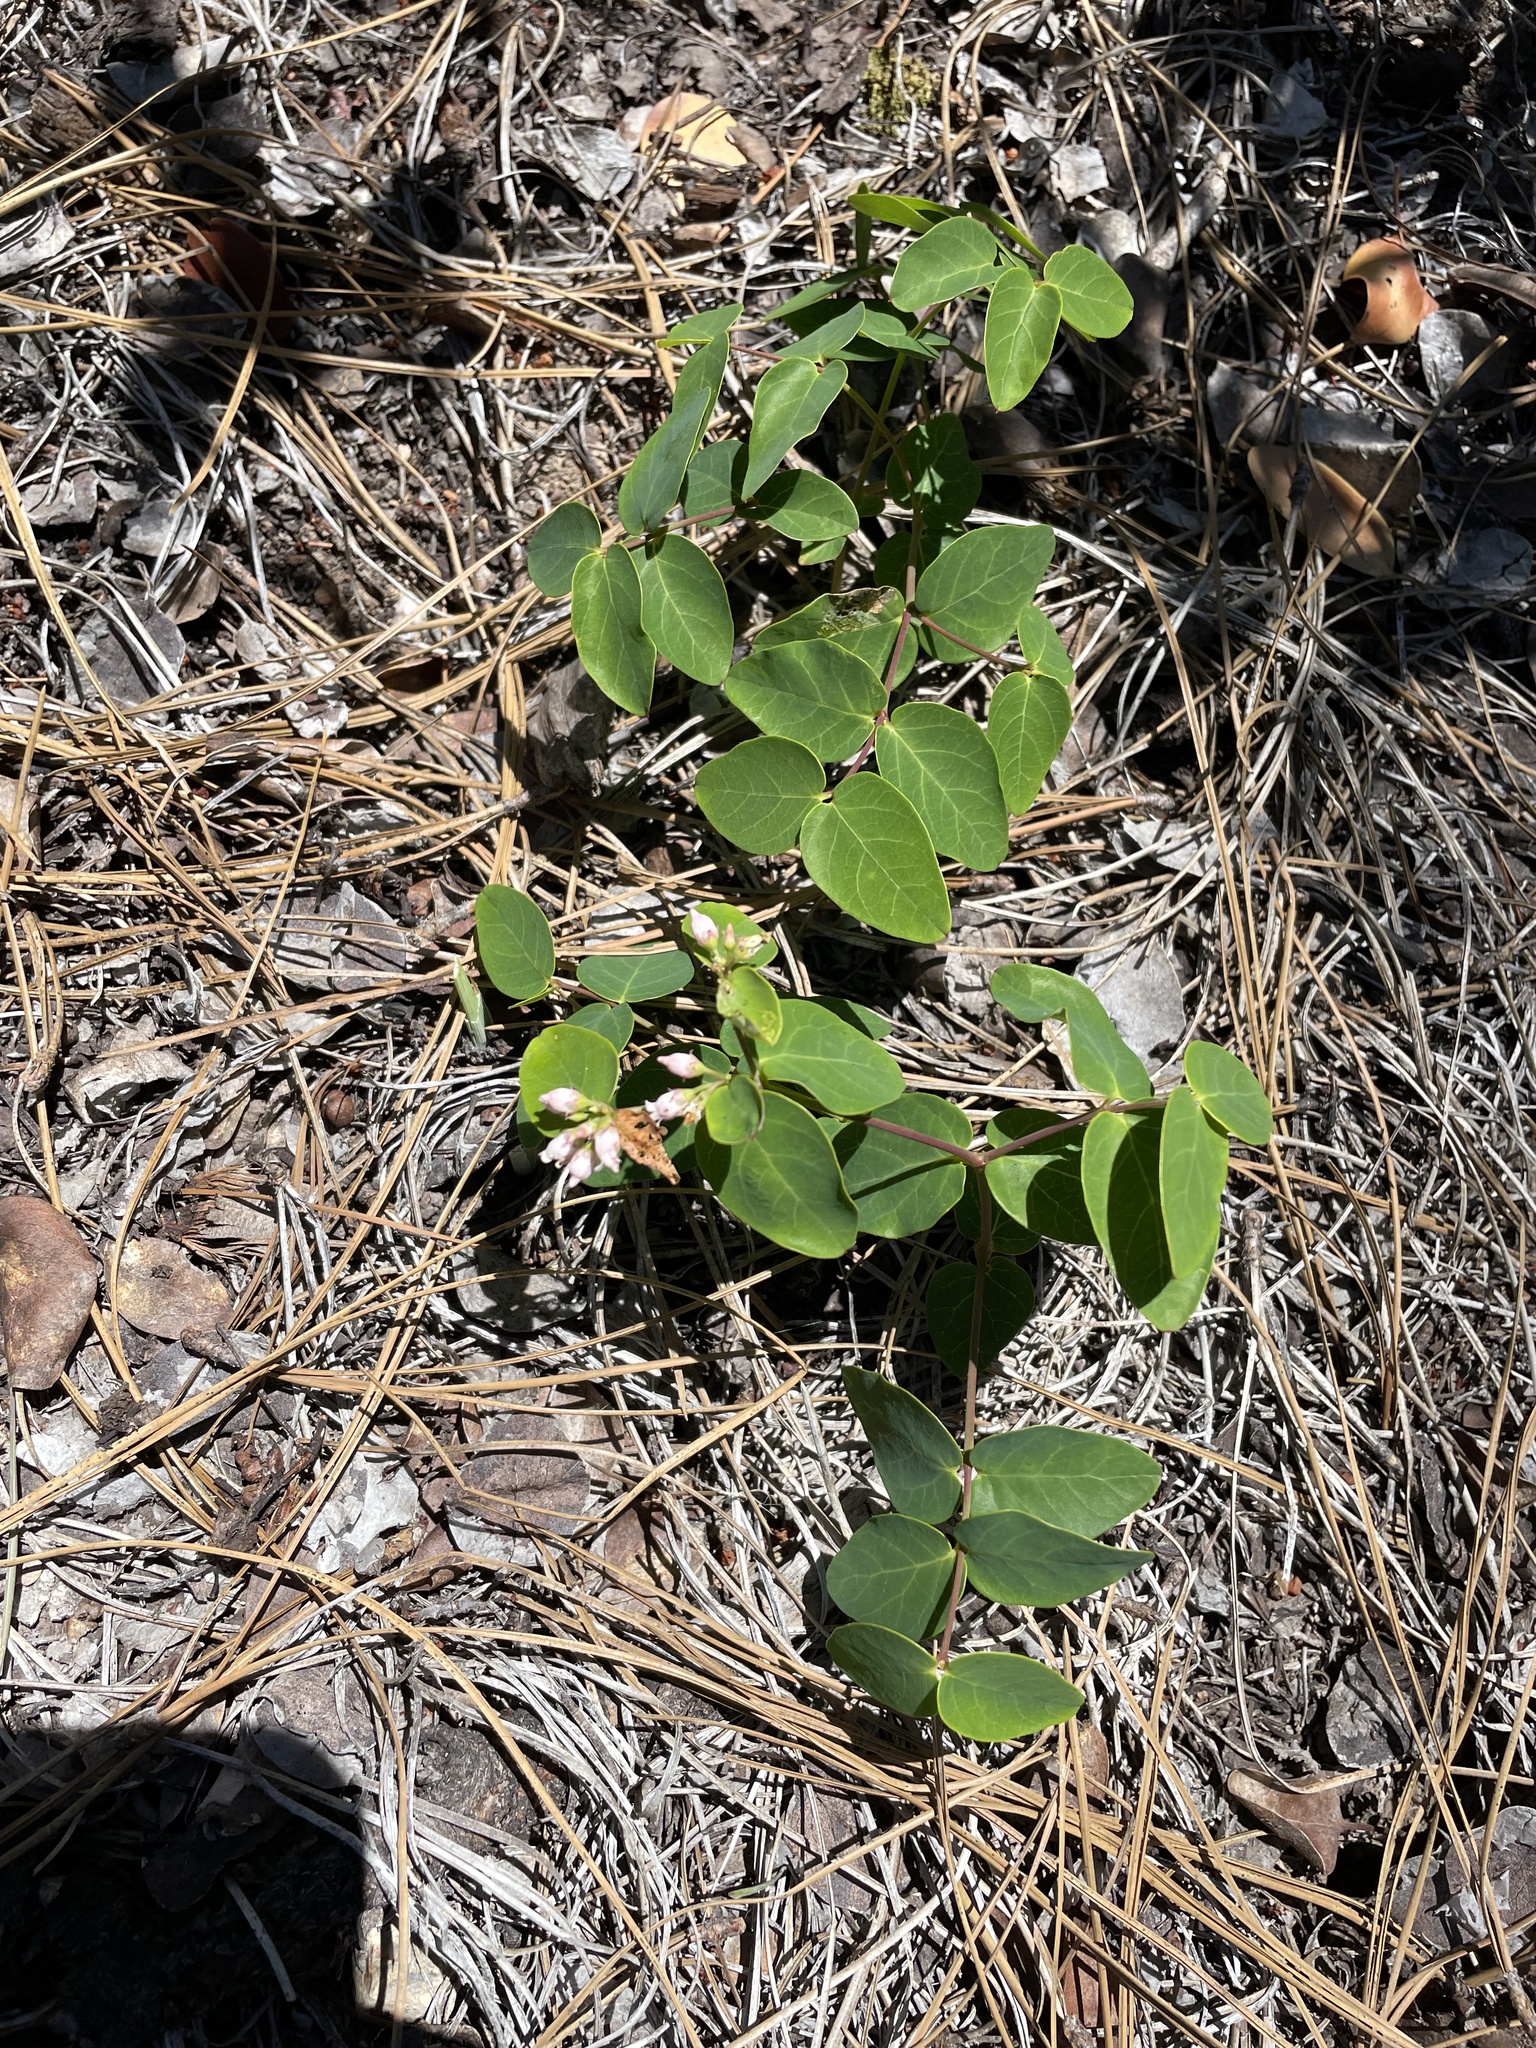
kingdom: Plantae
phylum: Tracheophyta
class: Magnoliopsida
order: Gentianales
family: Apocynaceae
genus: Apocynum
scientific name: Apocynum androsaemifolium
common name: Spreading dogbane
